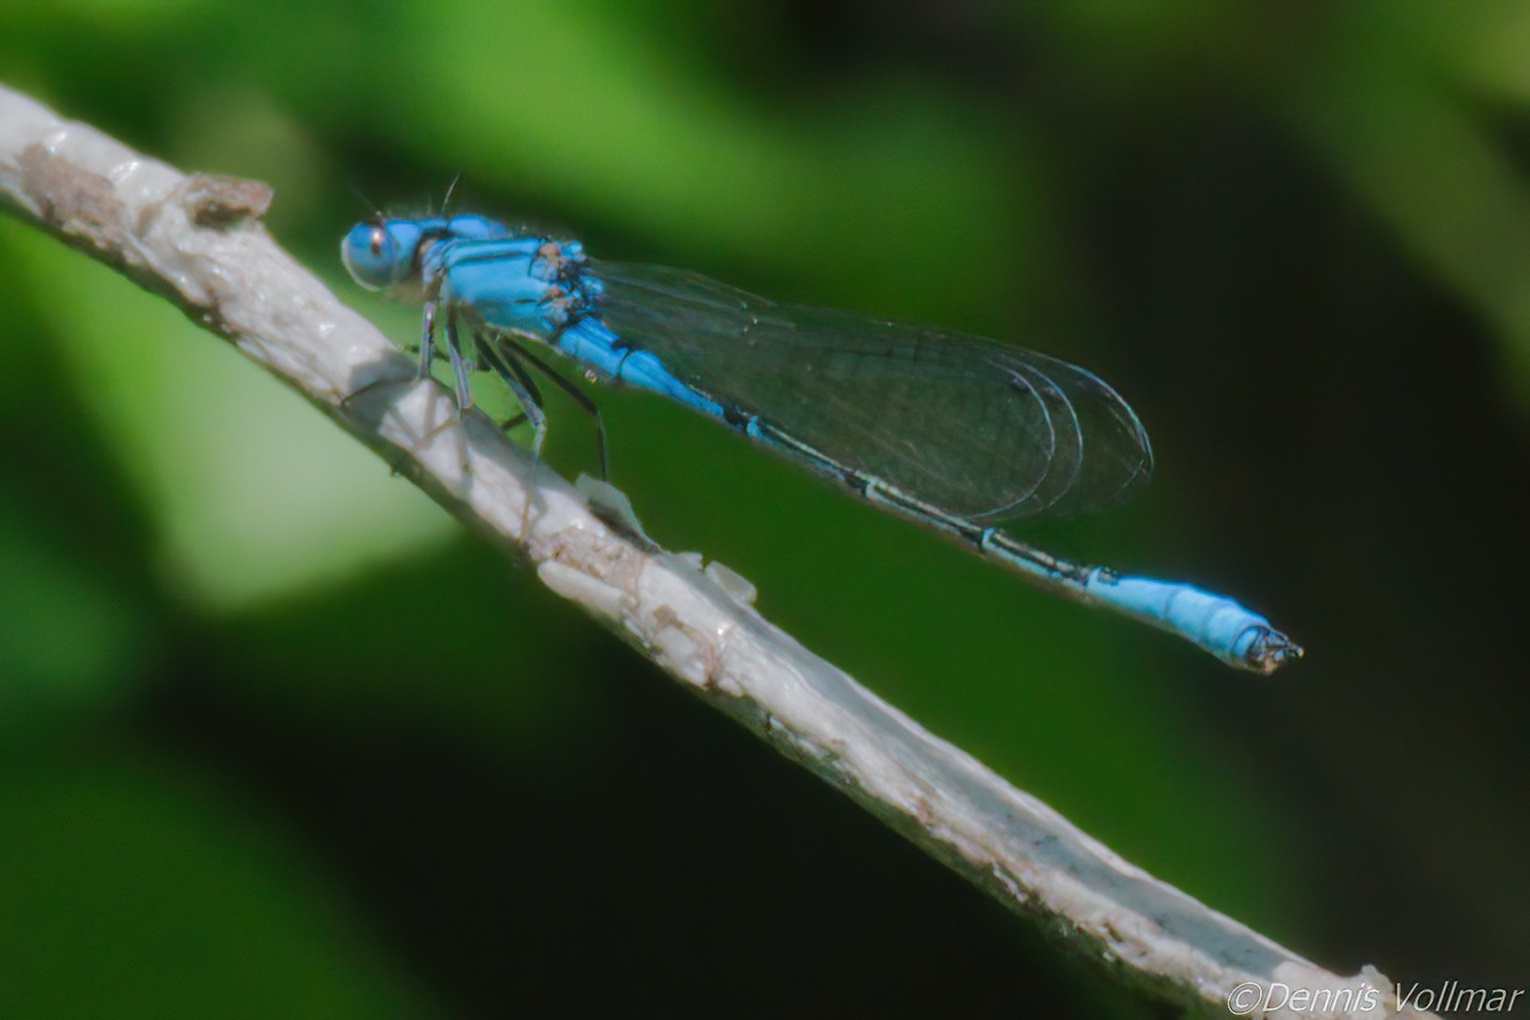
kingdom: Animalia
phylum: Arthropoda
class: Insecta
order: Odonata
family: Coenagrionidae
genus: Enallagma
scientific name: Enallagma aspersum
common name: Azure bluet
